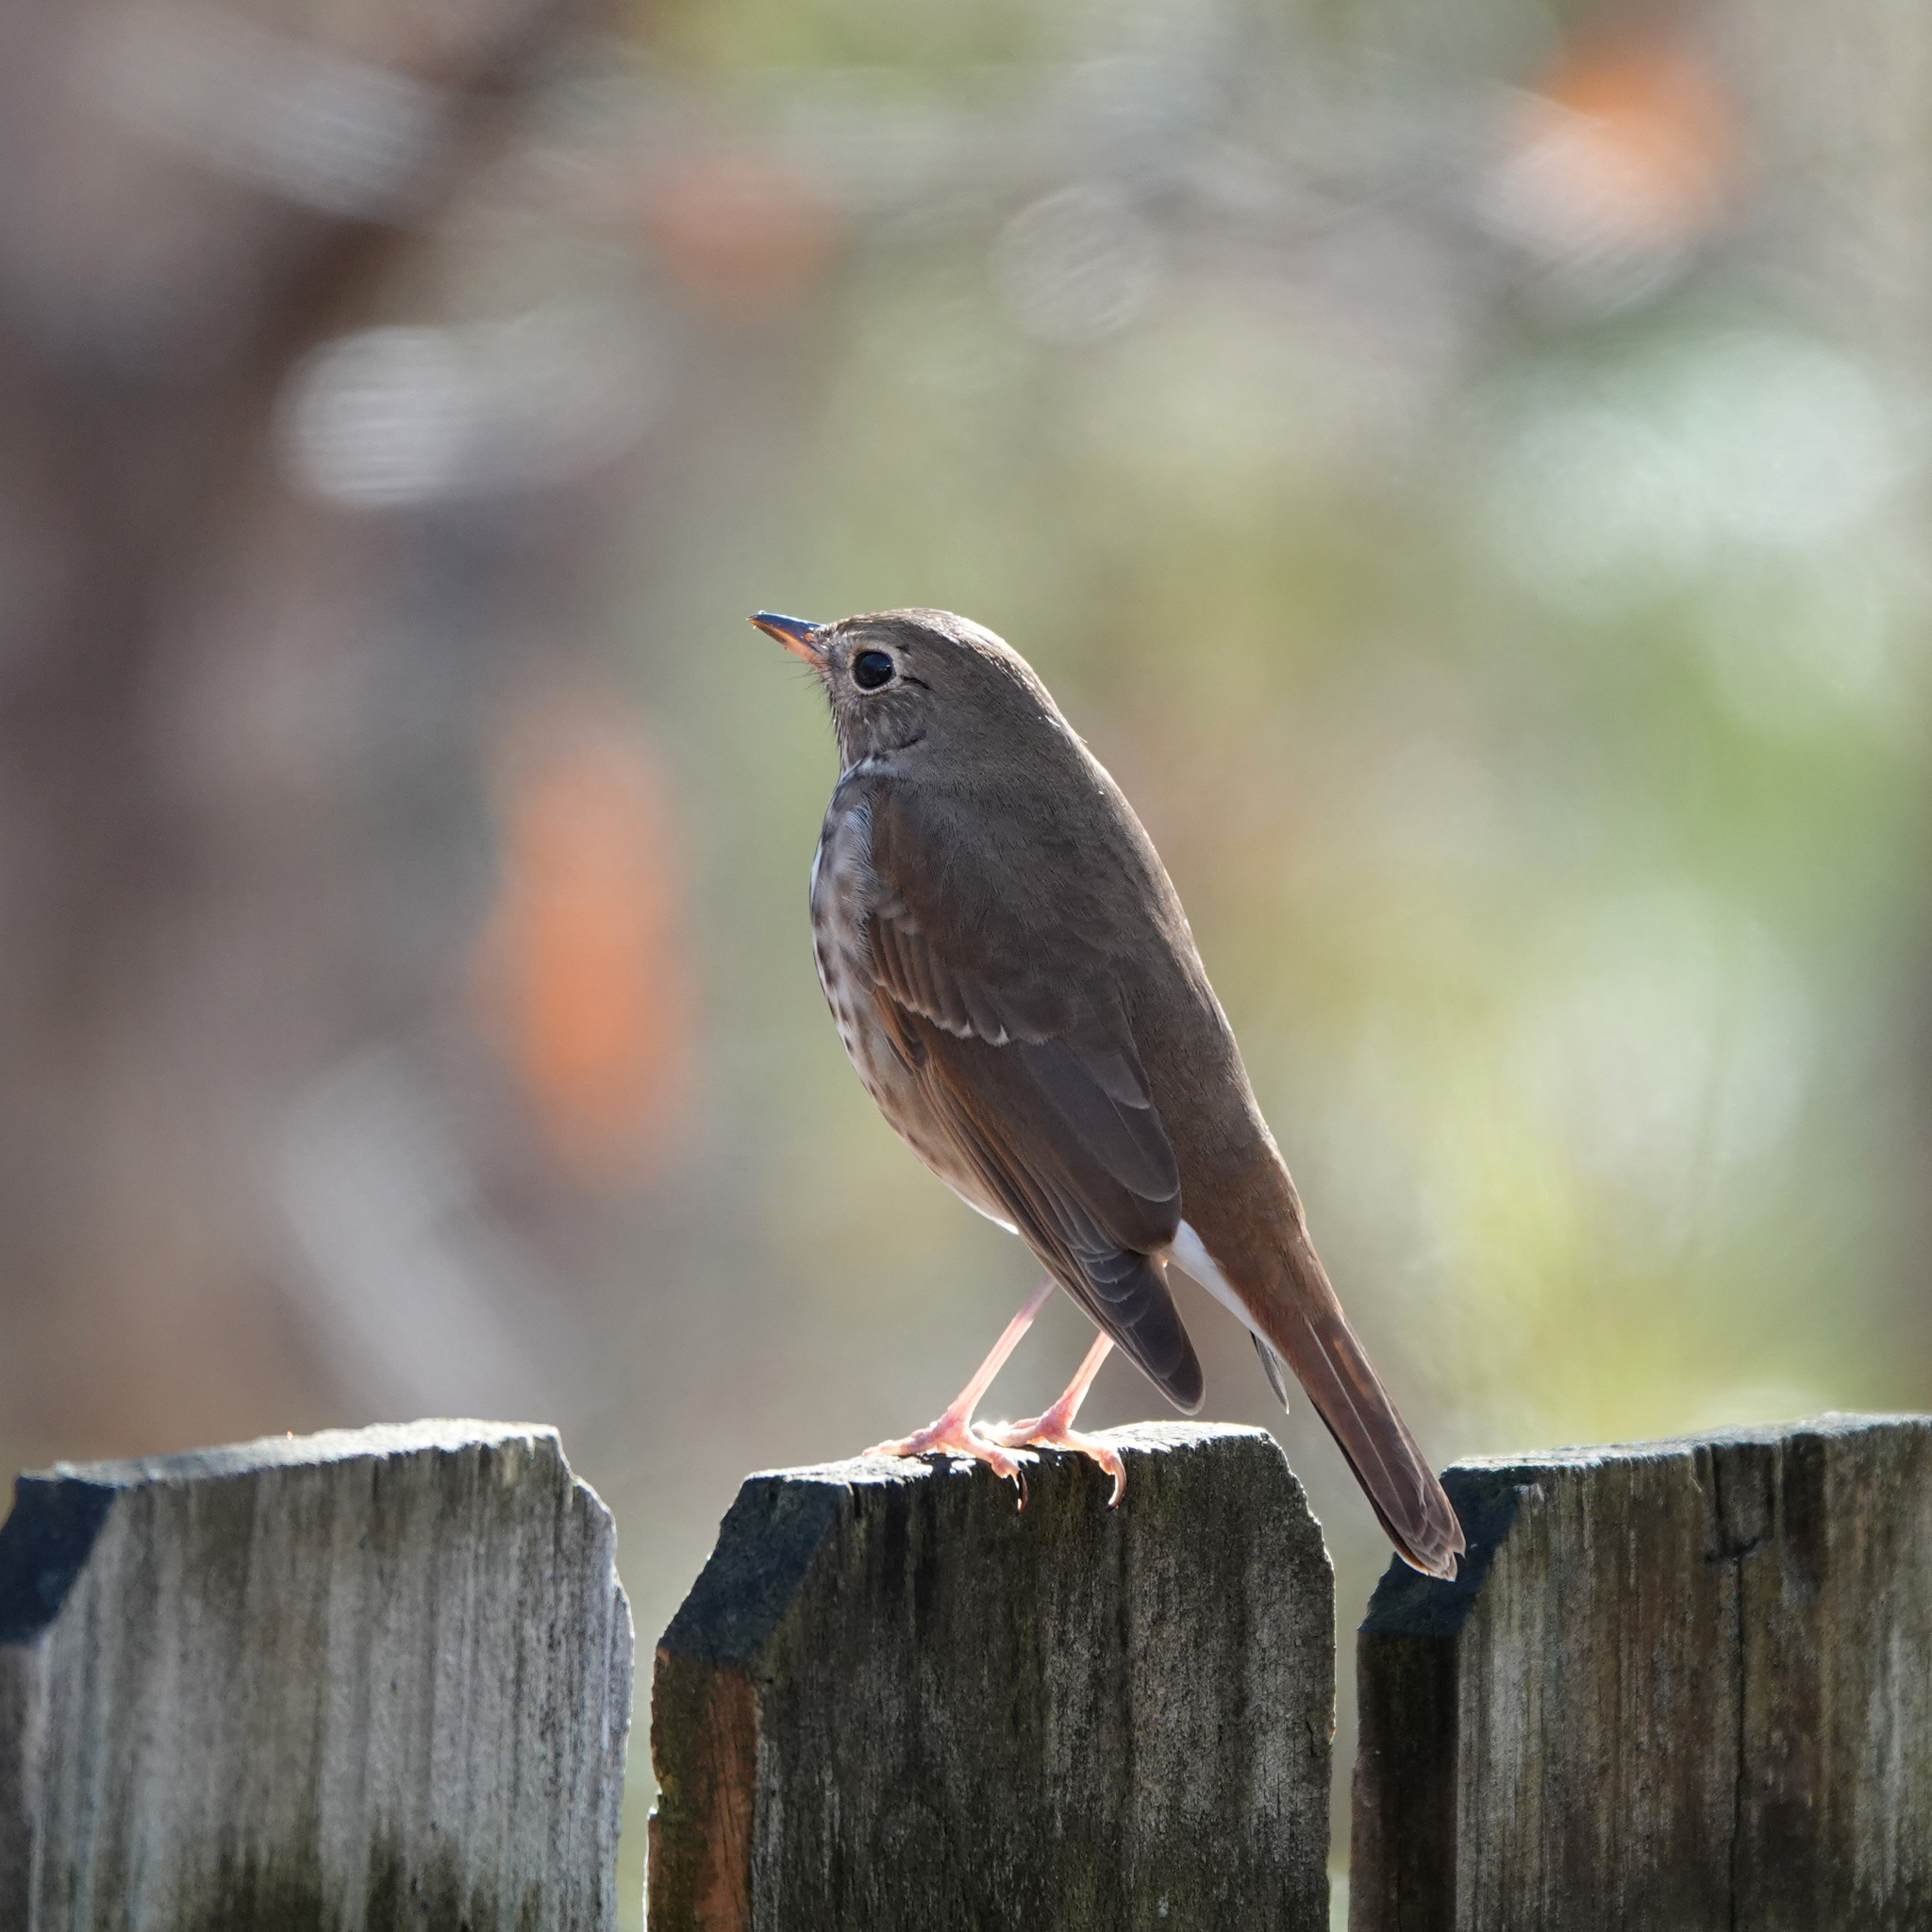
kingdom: Animalia
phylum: Chordata
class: Aves
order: Passeriformes
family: Turdidae
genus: Catharus
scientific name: Catharus guttatus
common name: Hermit thrush
